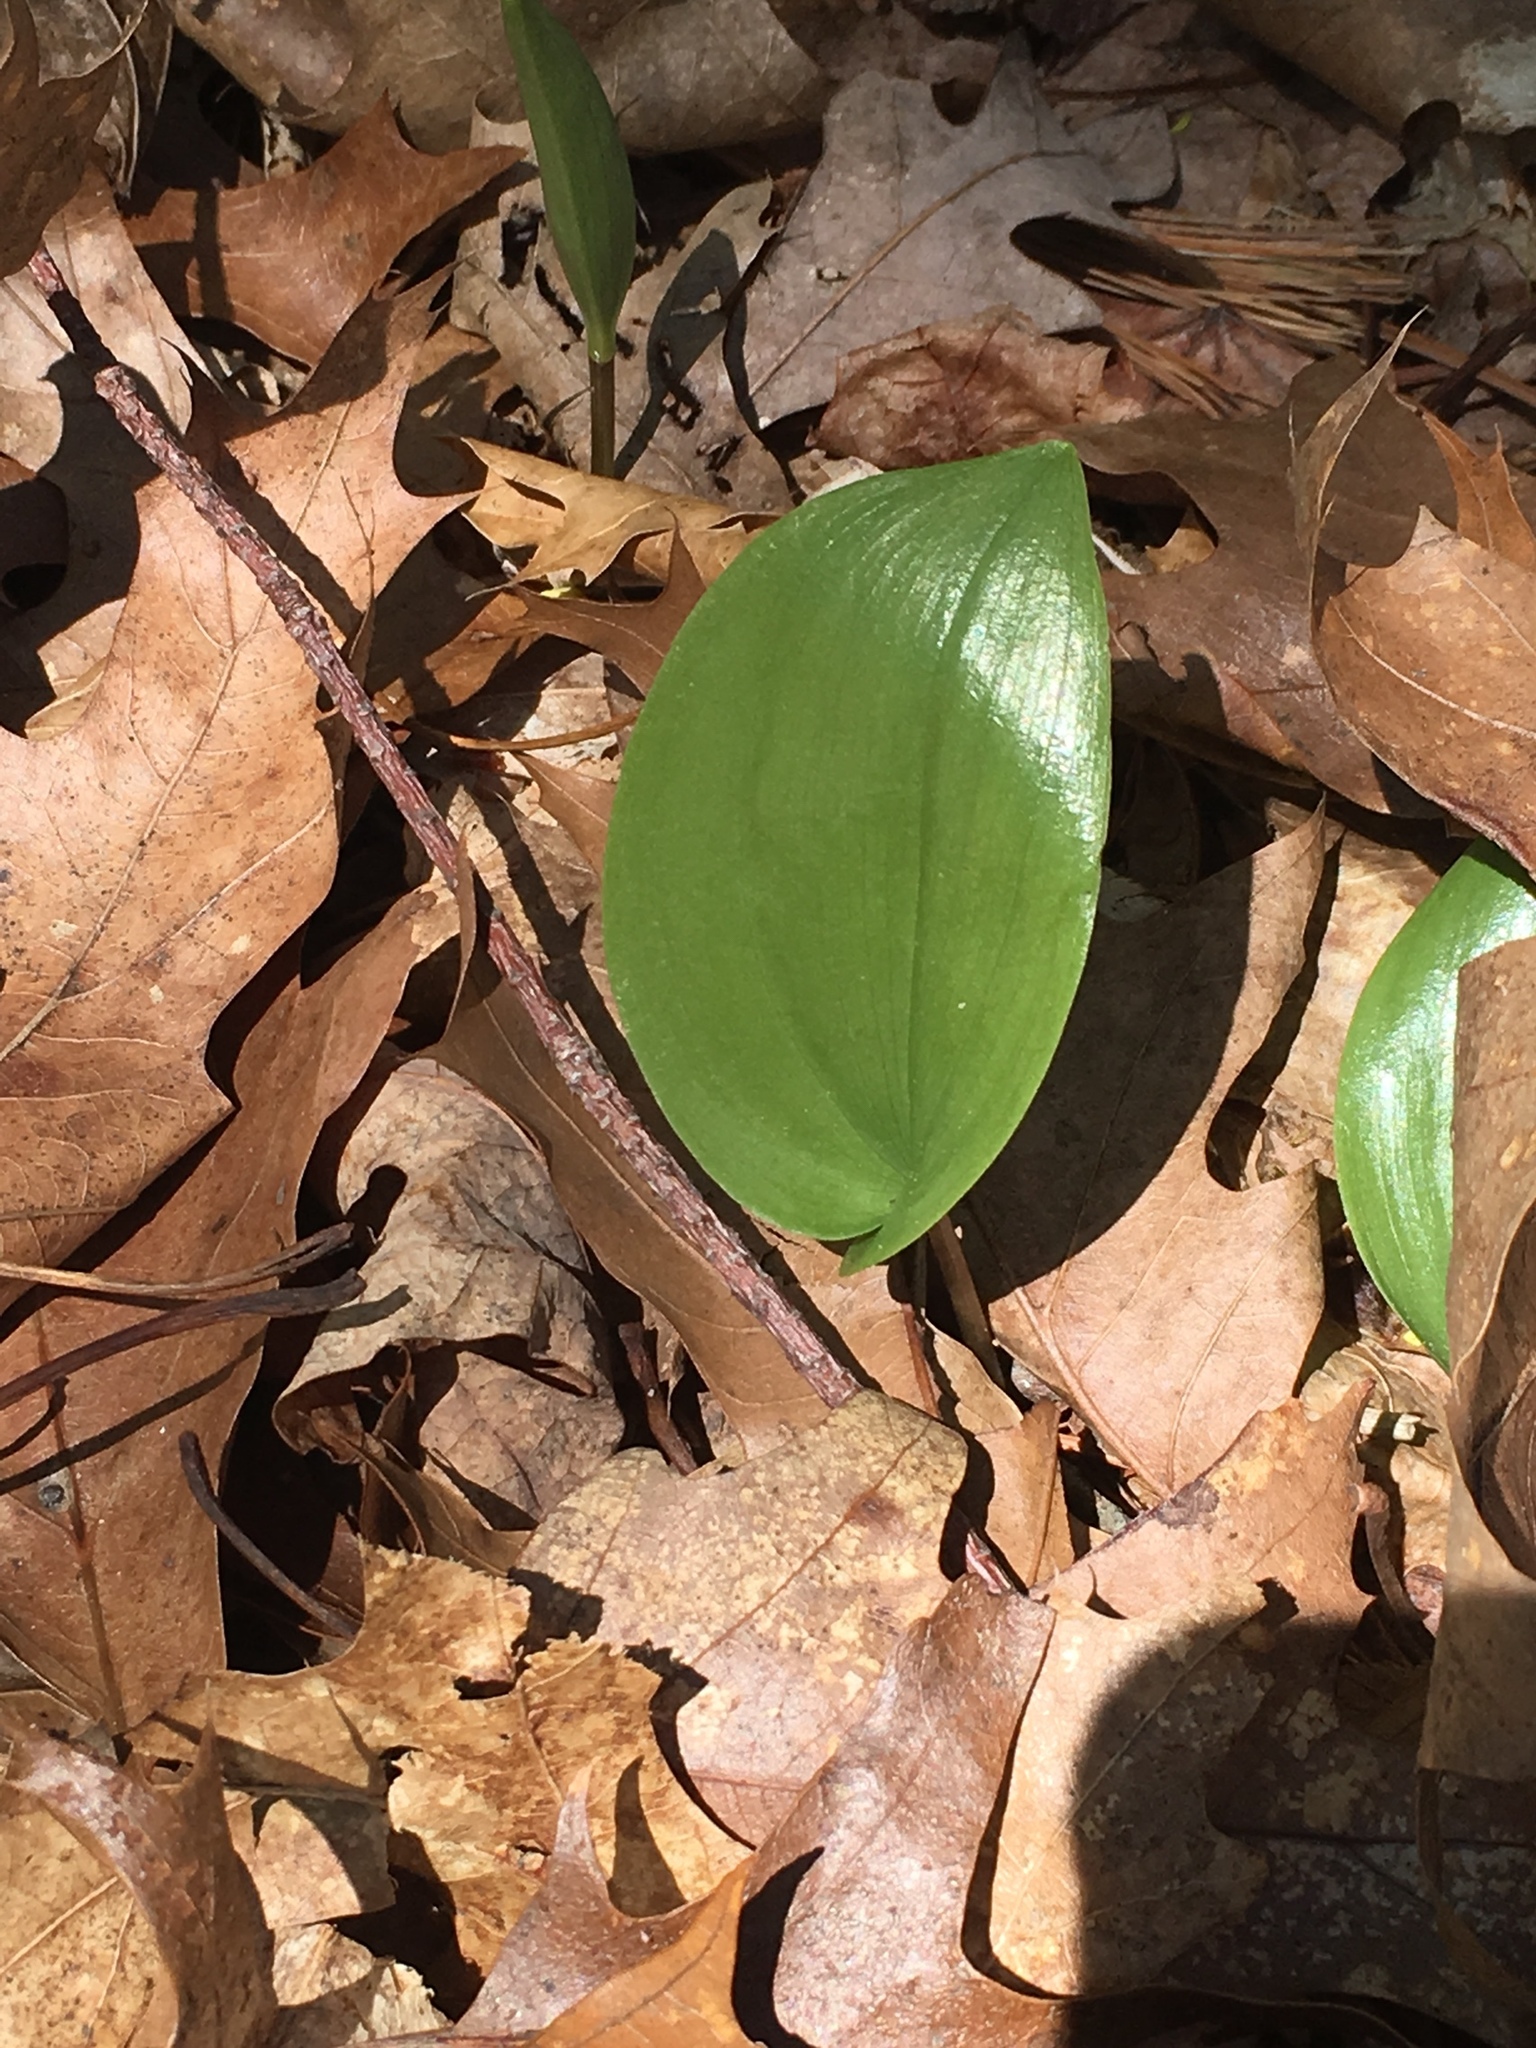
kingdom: Plantae
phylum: Tracheophyta
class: Liliopsida
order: Asparagales
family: Asparagaceae
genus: Maianthemum
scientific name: Maianthemum canadense
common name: False lily-of-the-valley
